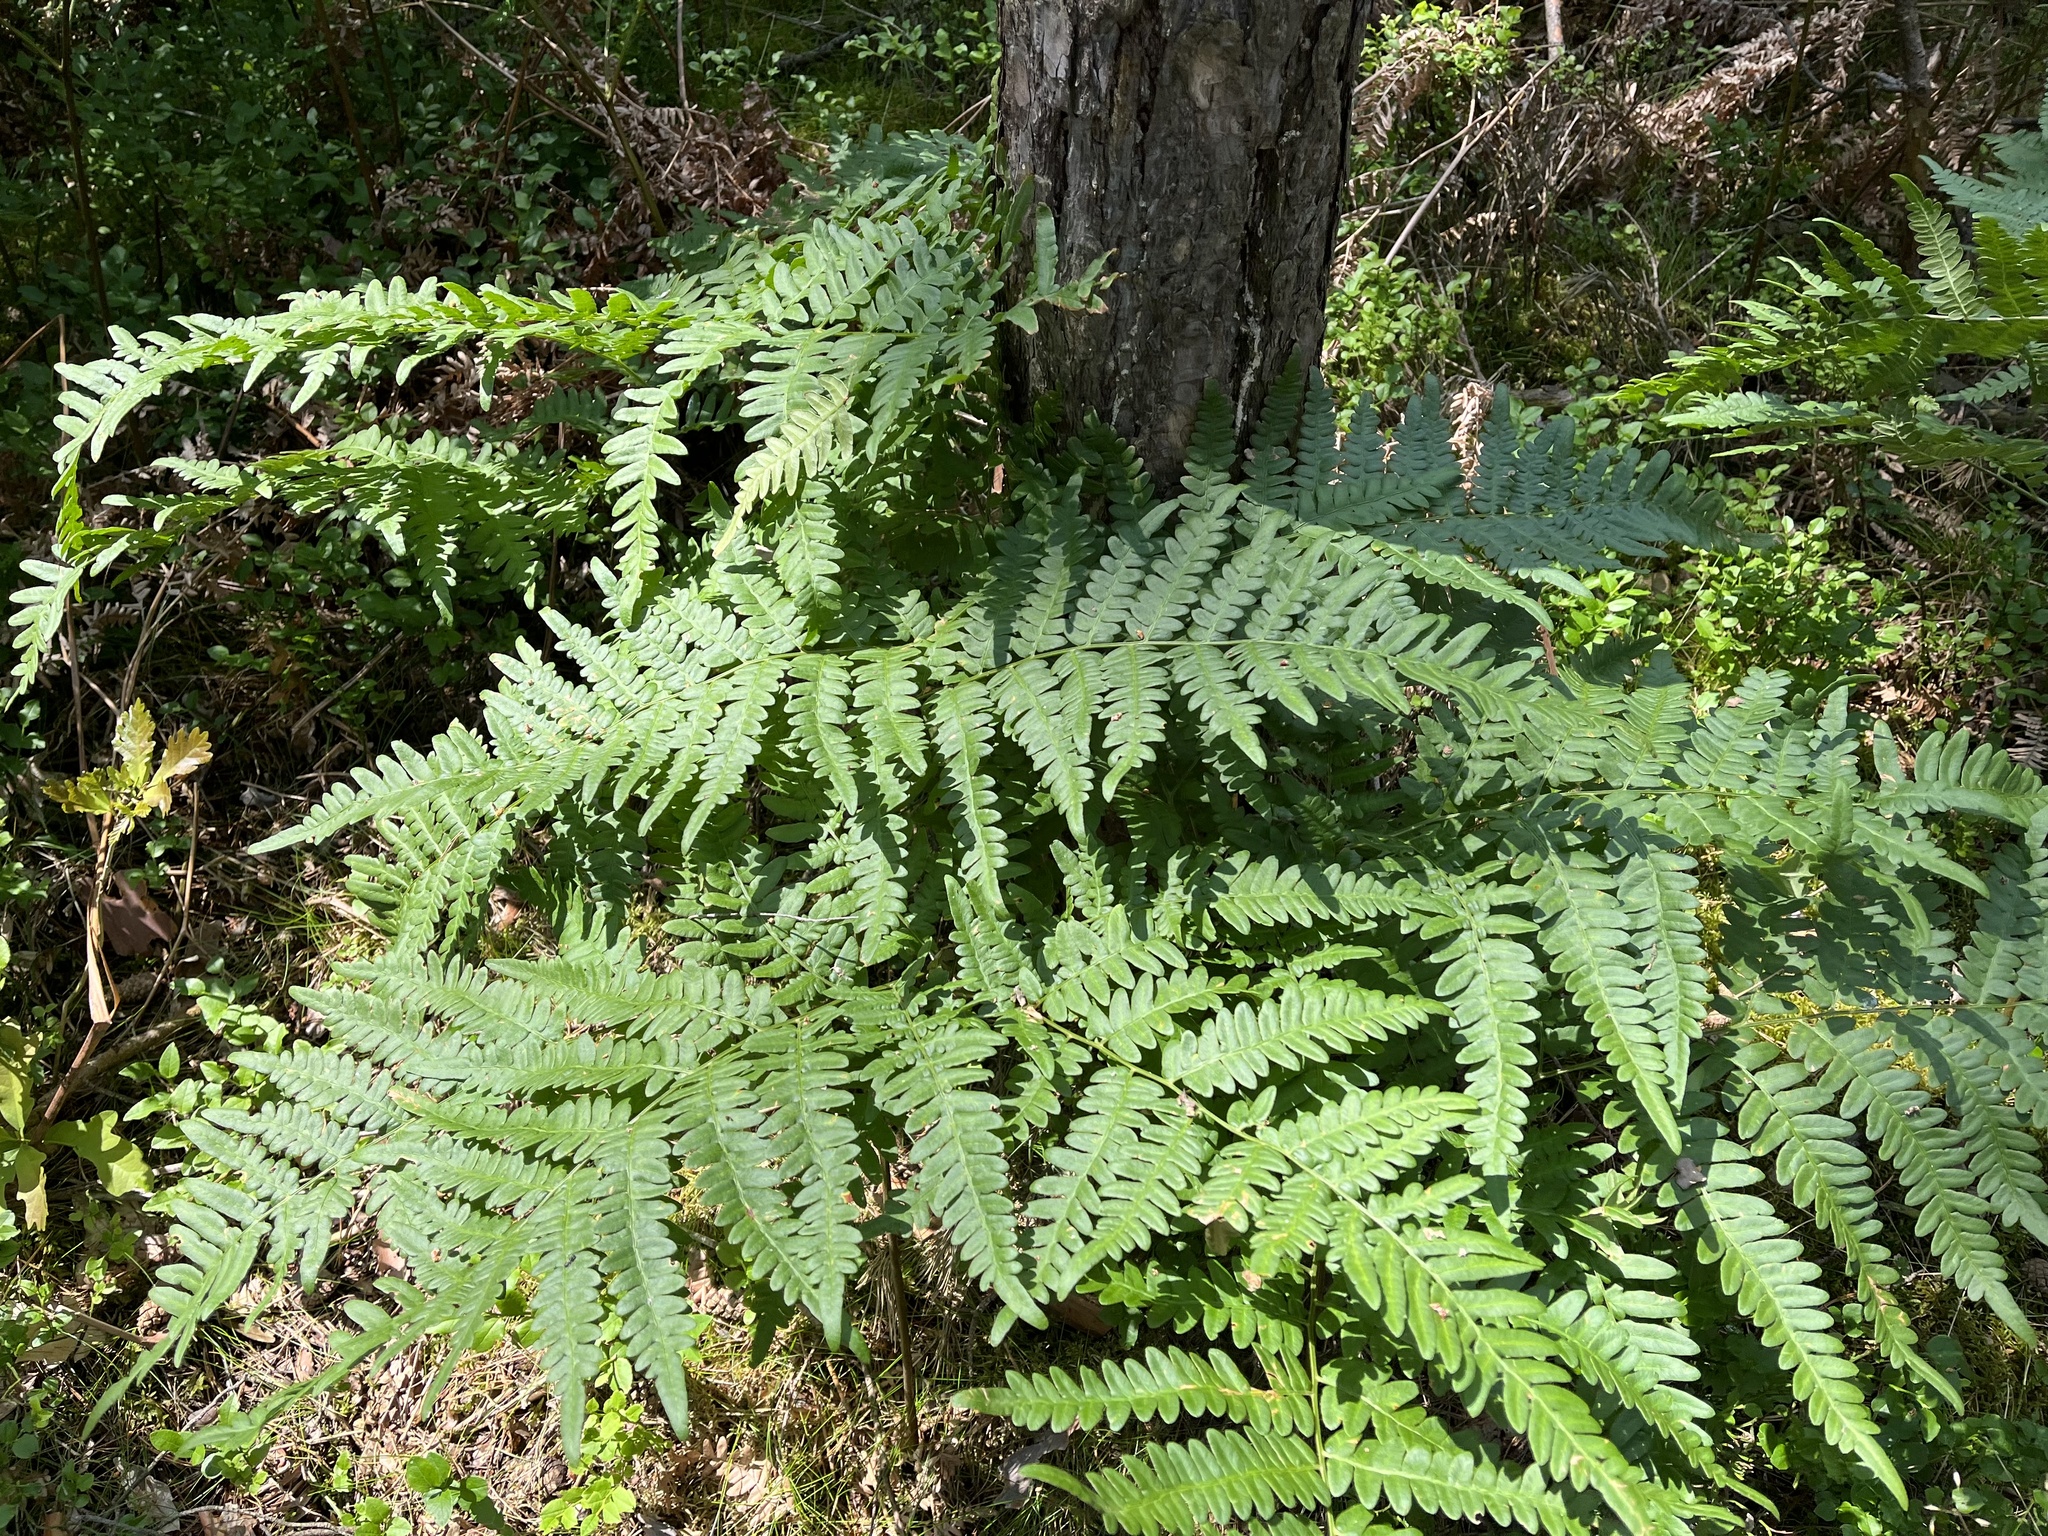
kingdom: Plantae
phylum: Tracheophyta
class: Polypodiopsida
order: Polypodiales
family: Dennstaedtiaceae
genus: Pteridium
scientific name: Pteridium aquilinum
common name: Bracken
